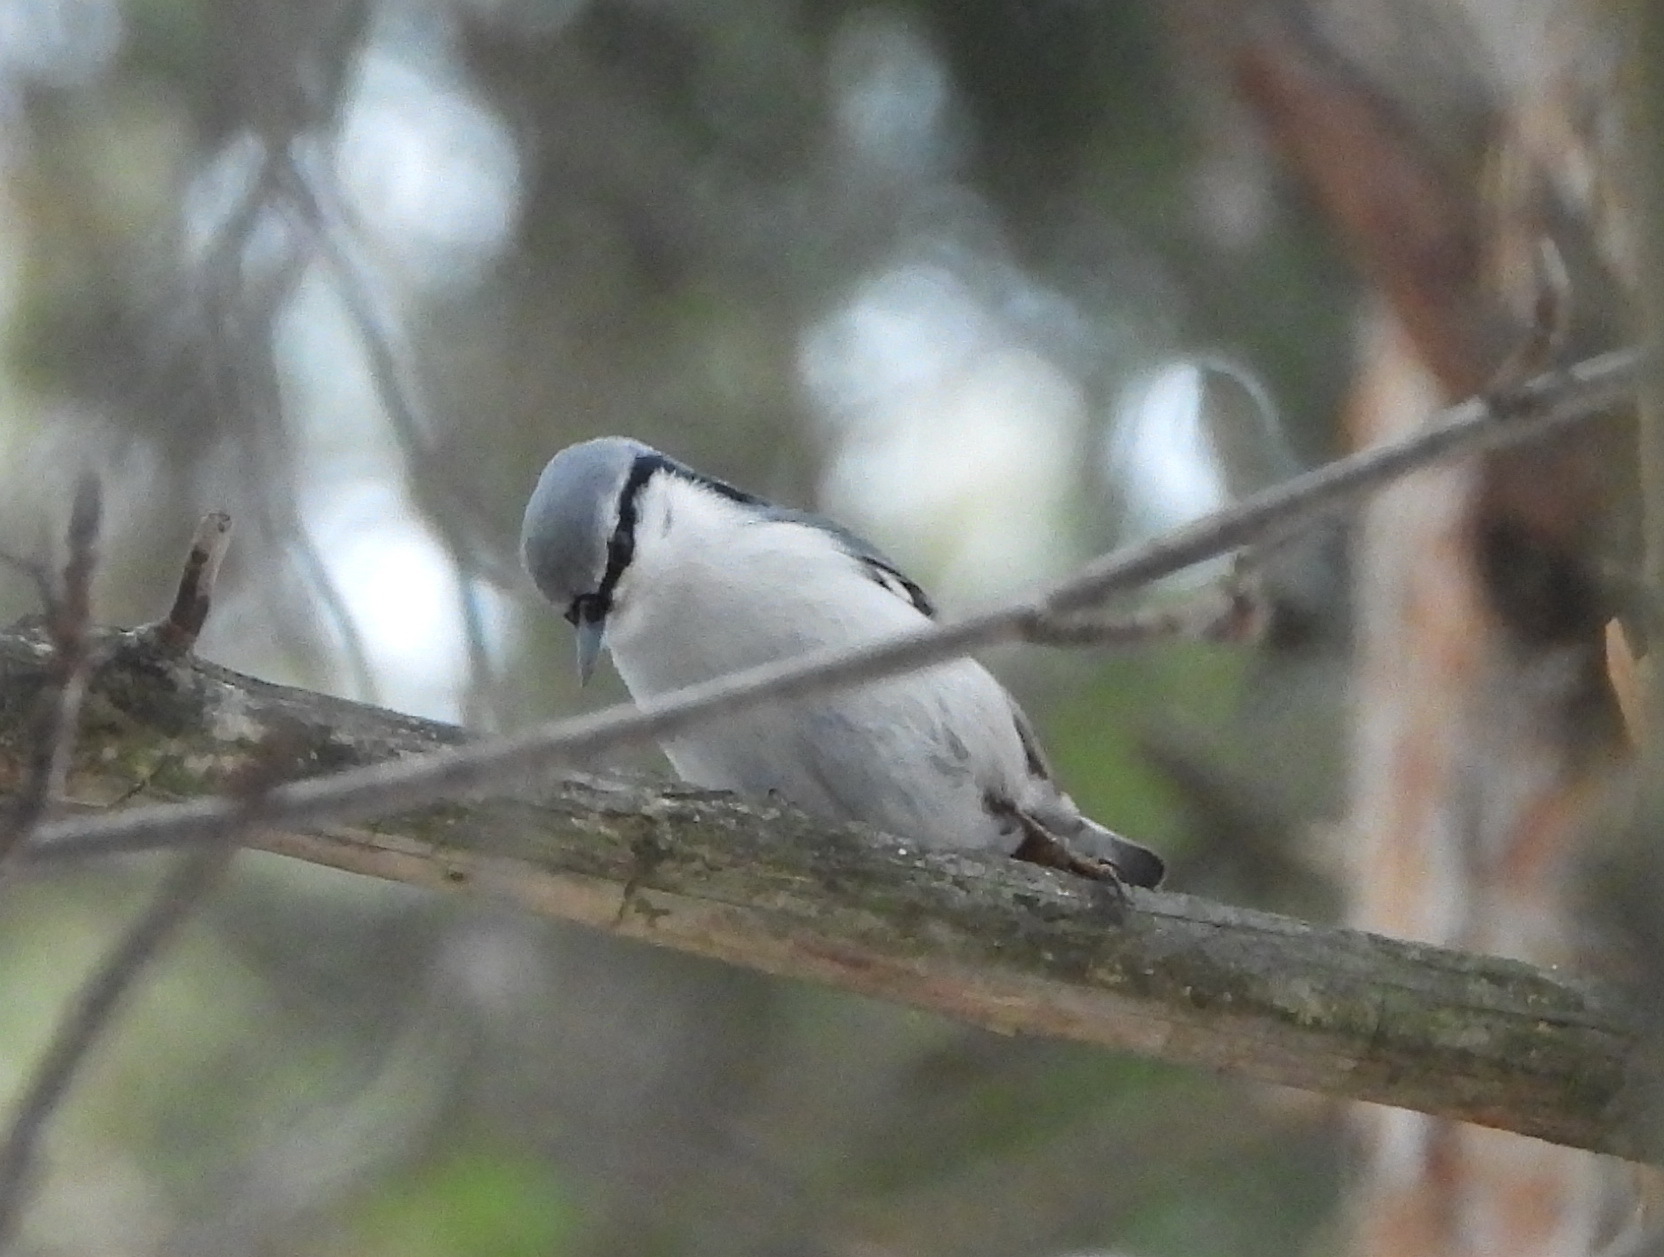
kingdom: Animalia
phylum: Chordata
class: Aves
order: Passeriformes
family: Sittidae
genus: Sitta
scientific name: Sitta europaea
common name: Eurasian nuthatch
